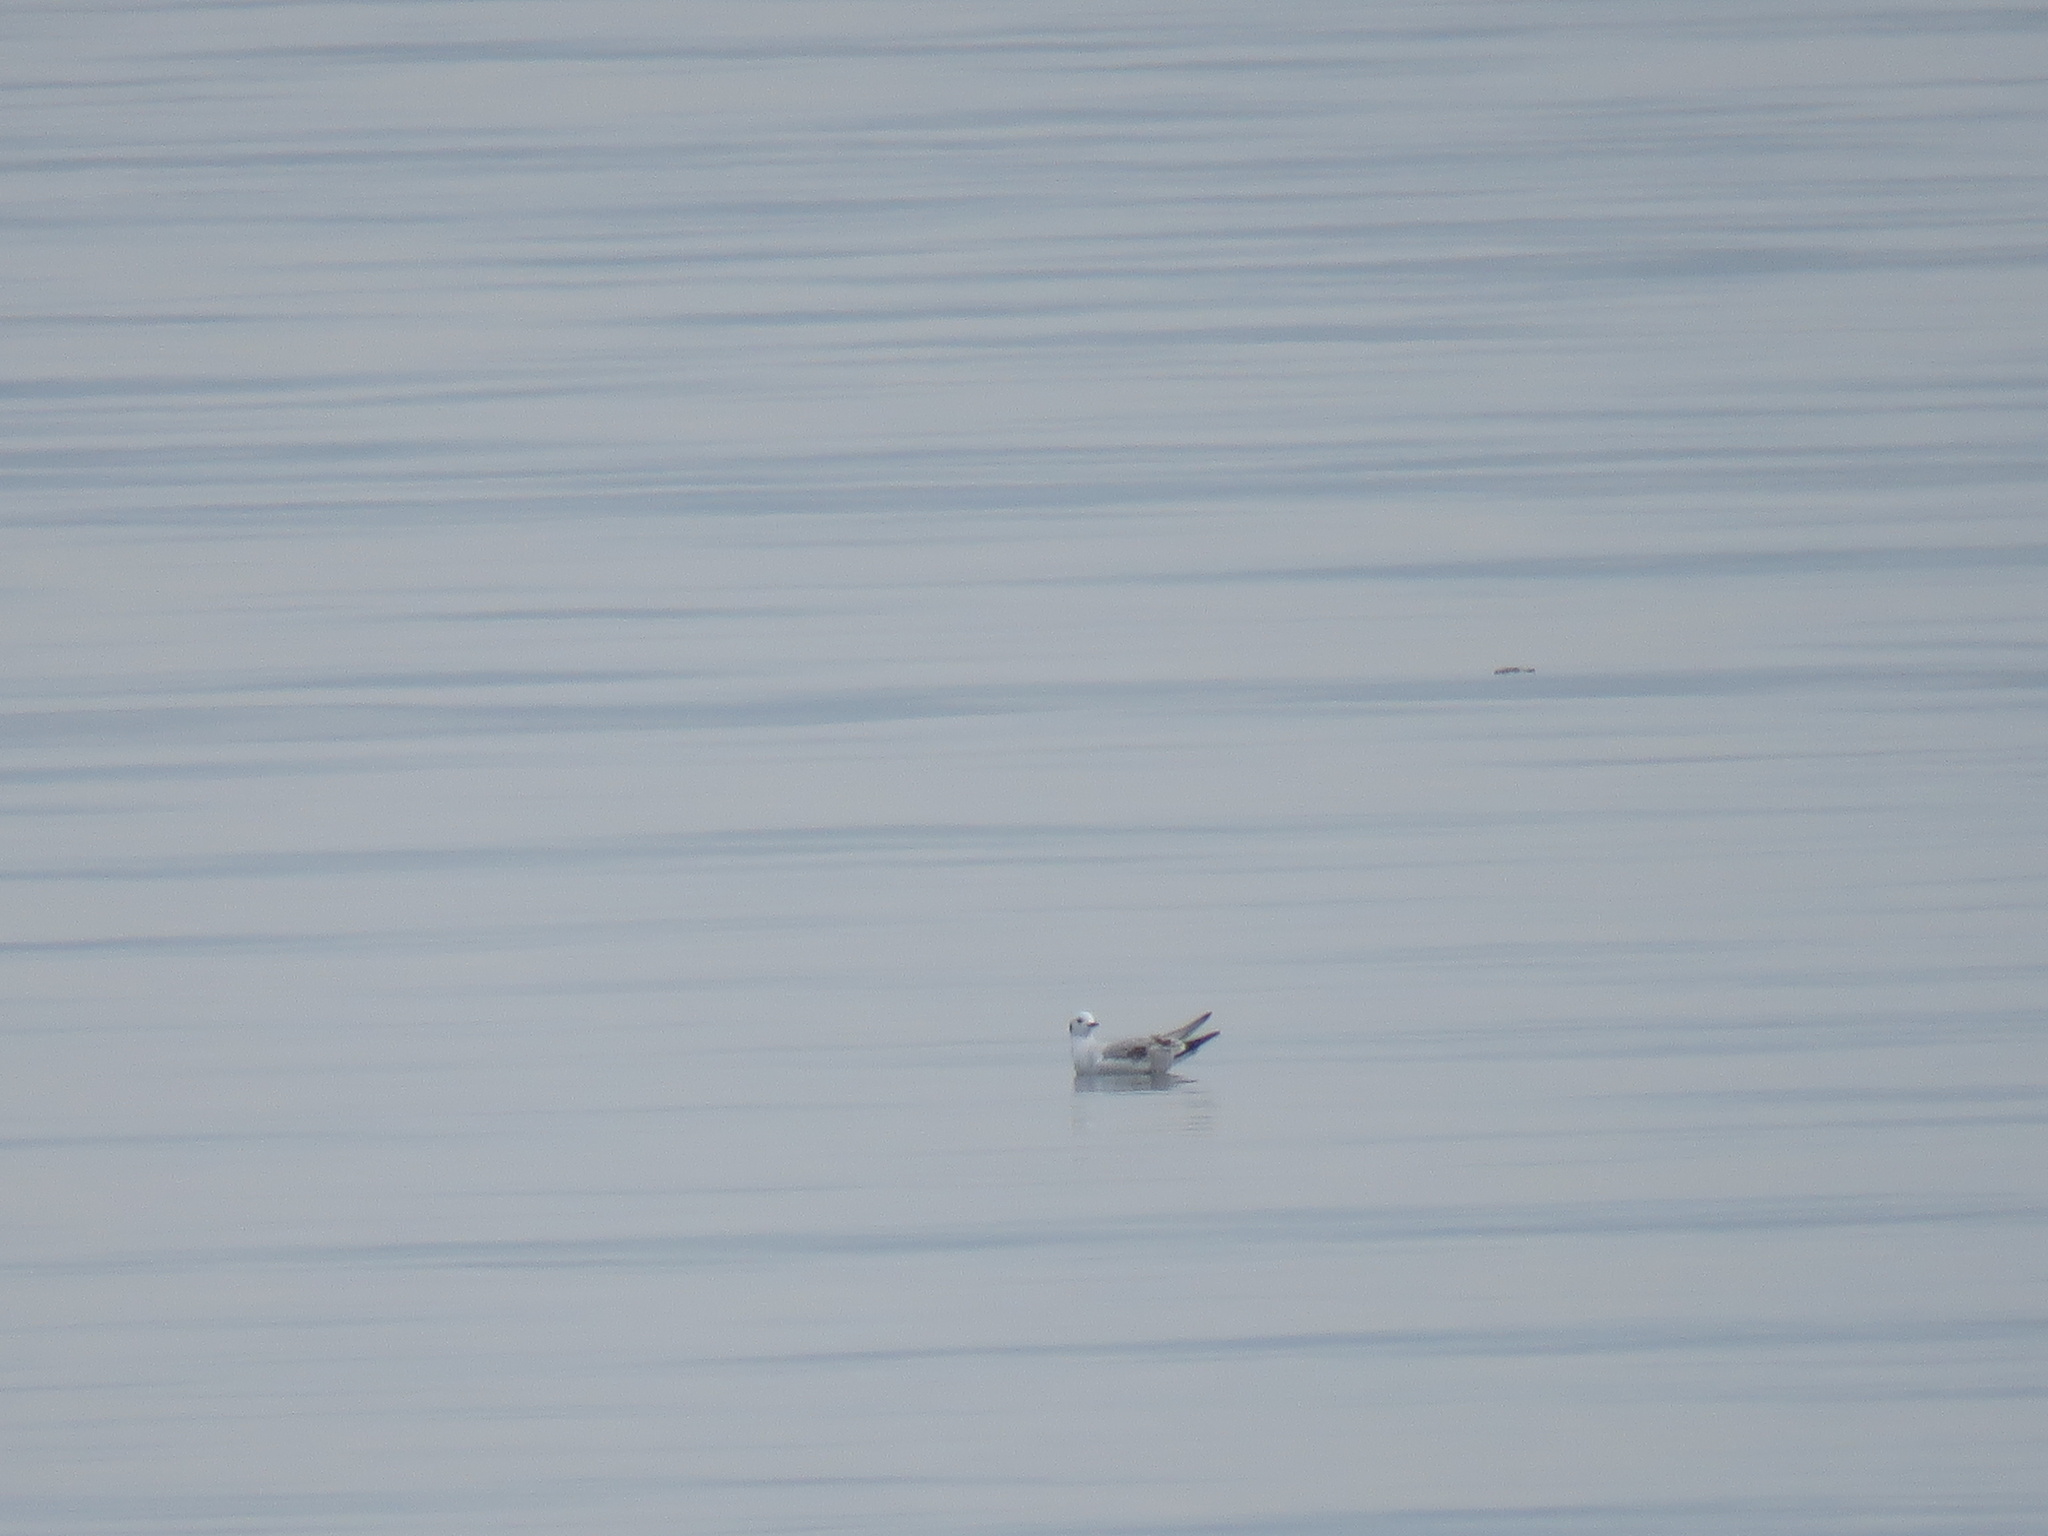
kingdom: Animalia
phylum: Chordata
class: Aves
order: Charadriiformes
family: Laridae
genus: Chroicocephalus
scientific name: Chroicocephalus philadelphia
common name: Bonaparte's gull
